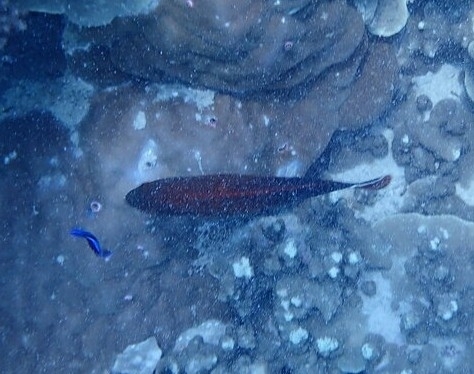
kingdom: Animalia
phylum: Chordata
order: Perciformes
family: Serranidae
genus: Cephalopholis
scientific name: Cephalopholis urodeta
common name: Darkfin hind
